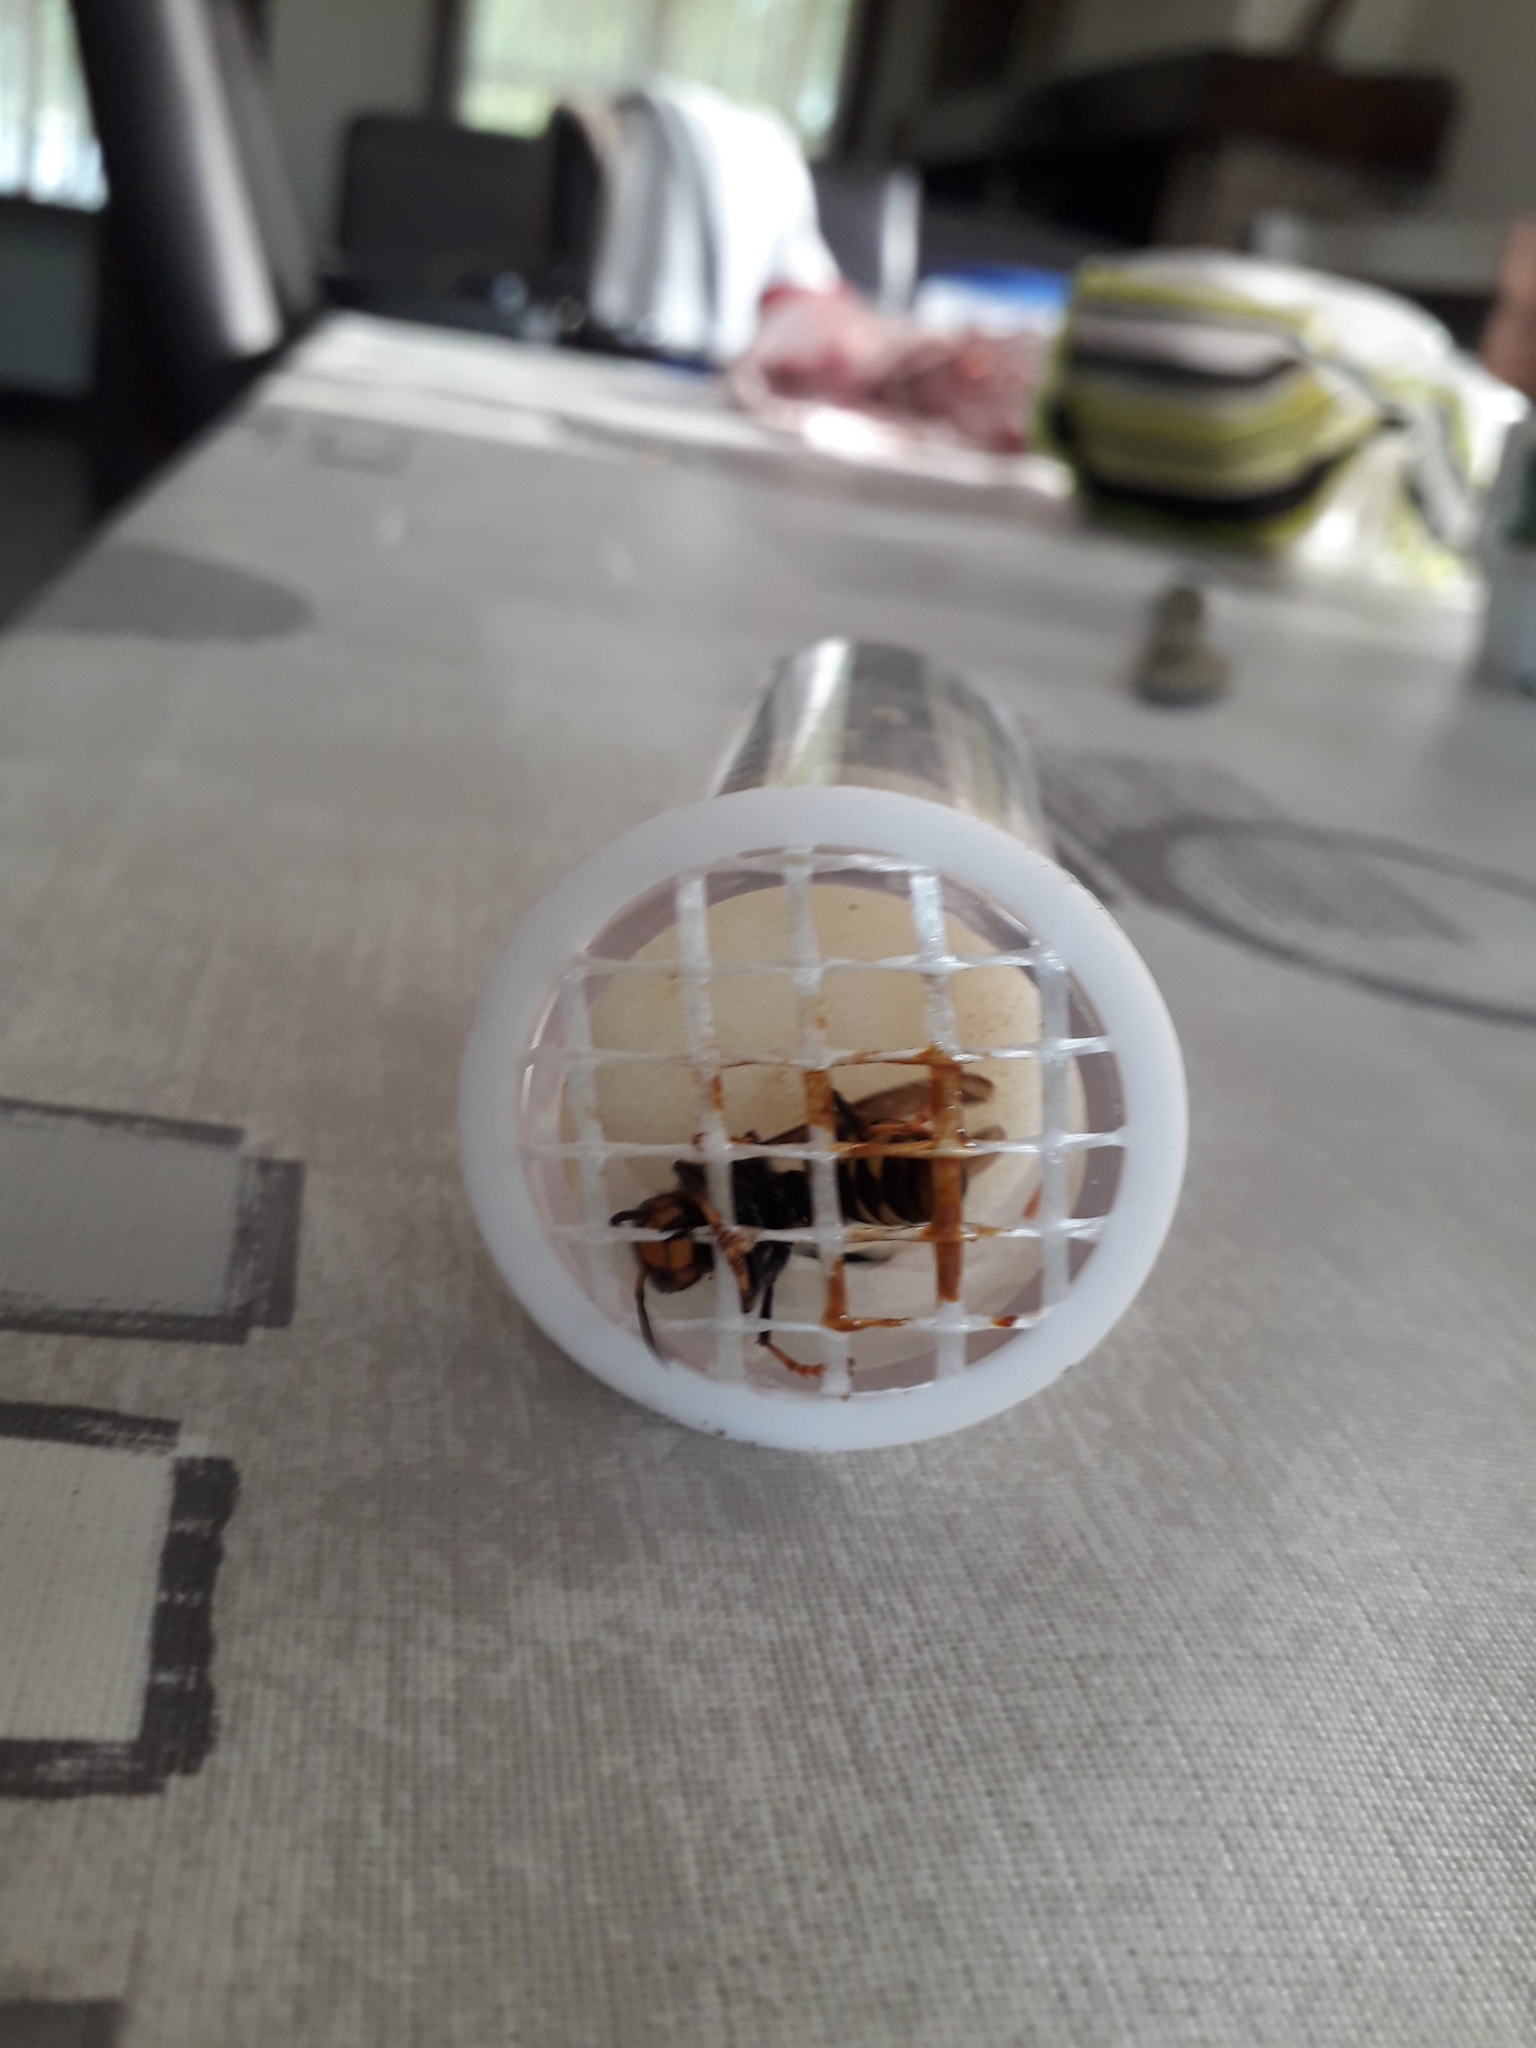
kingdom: Animalia
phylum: Arthropoda
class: Insecta
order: Hymenoptera
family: Vespidae
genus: Vespa
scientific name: Vespa velutina
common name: Asian hornet
